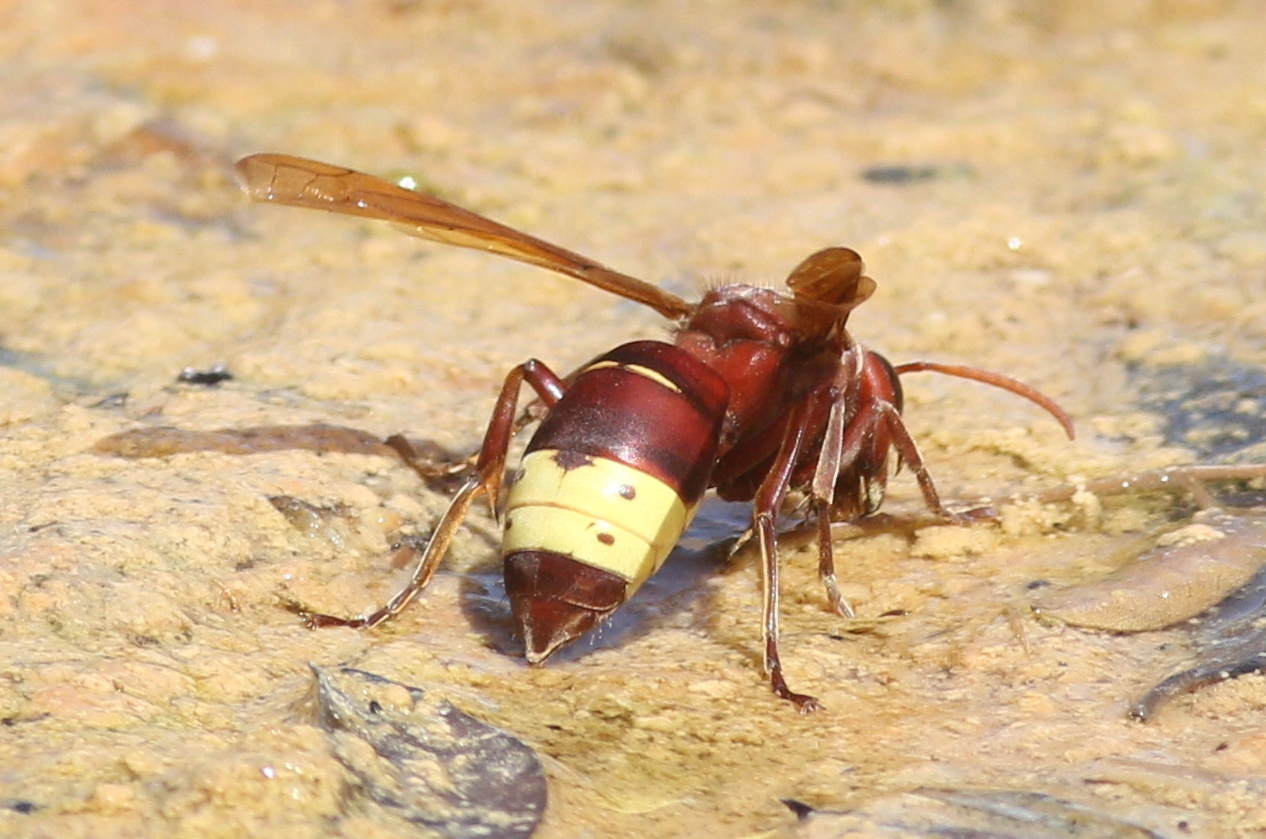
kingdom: Animalia
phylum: Arthropoda
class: Insecta
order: Hymenoptera
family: Vespidae
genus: Vespa
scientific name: Vespa orientalis
